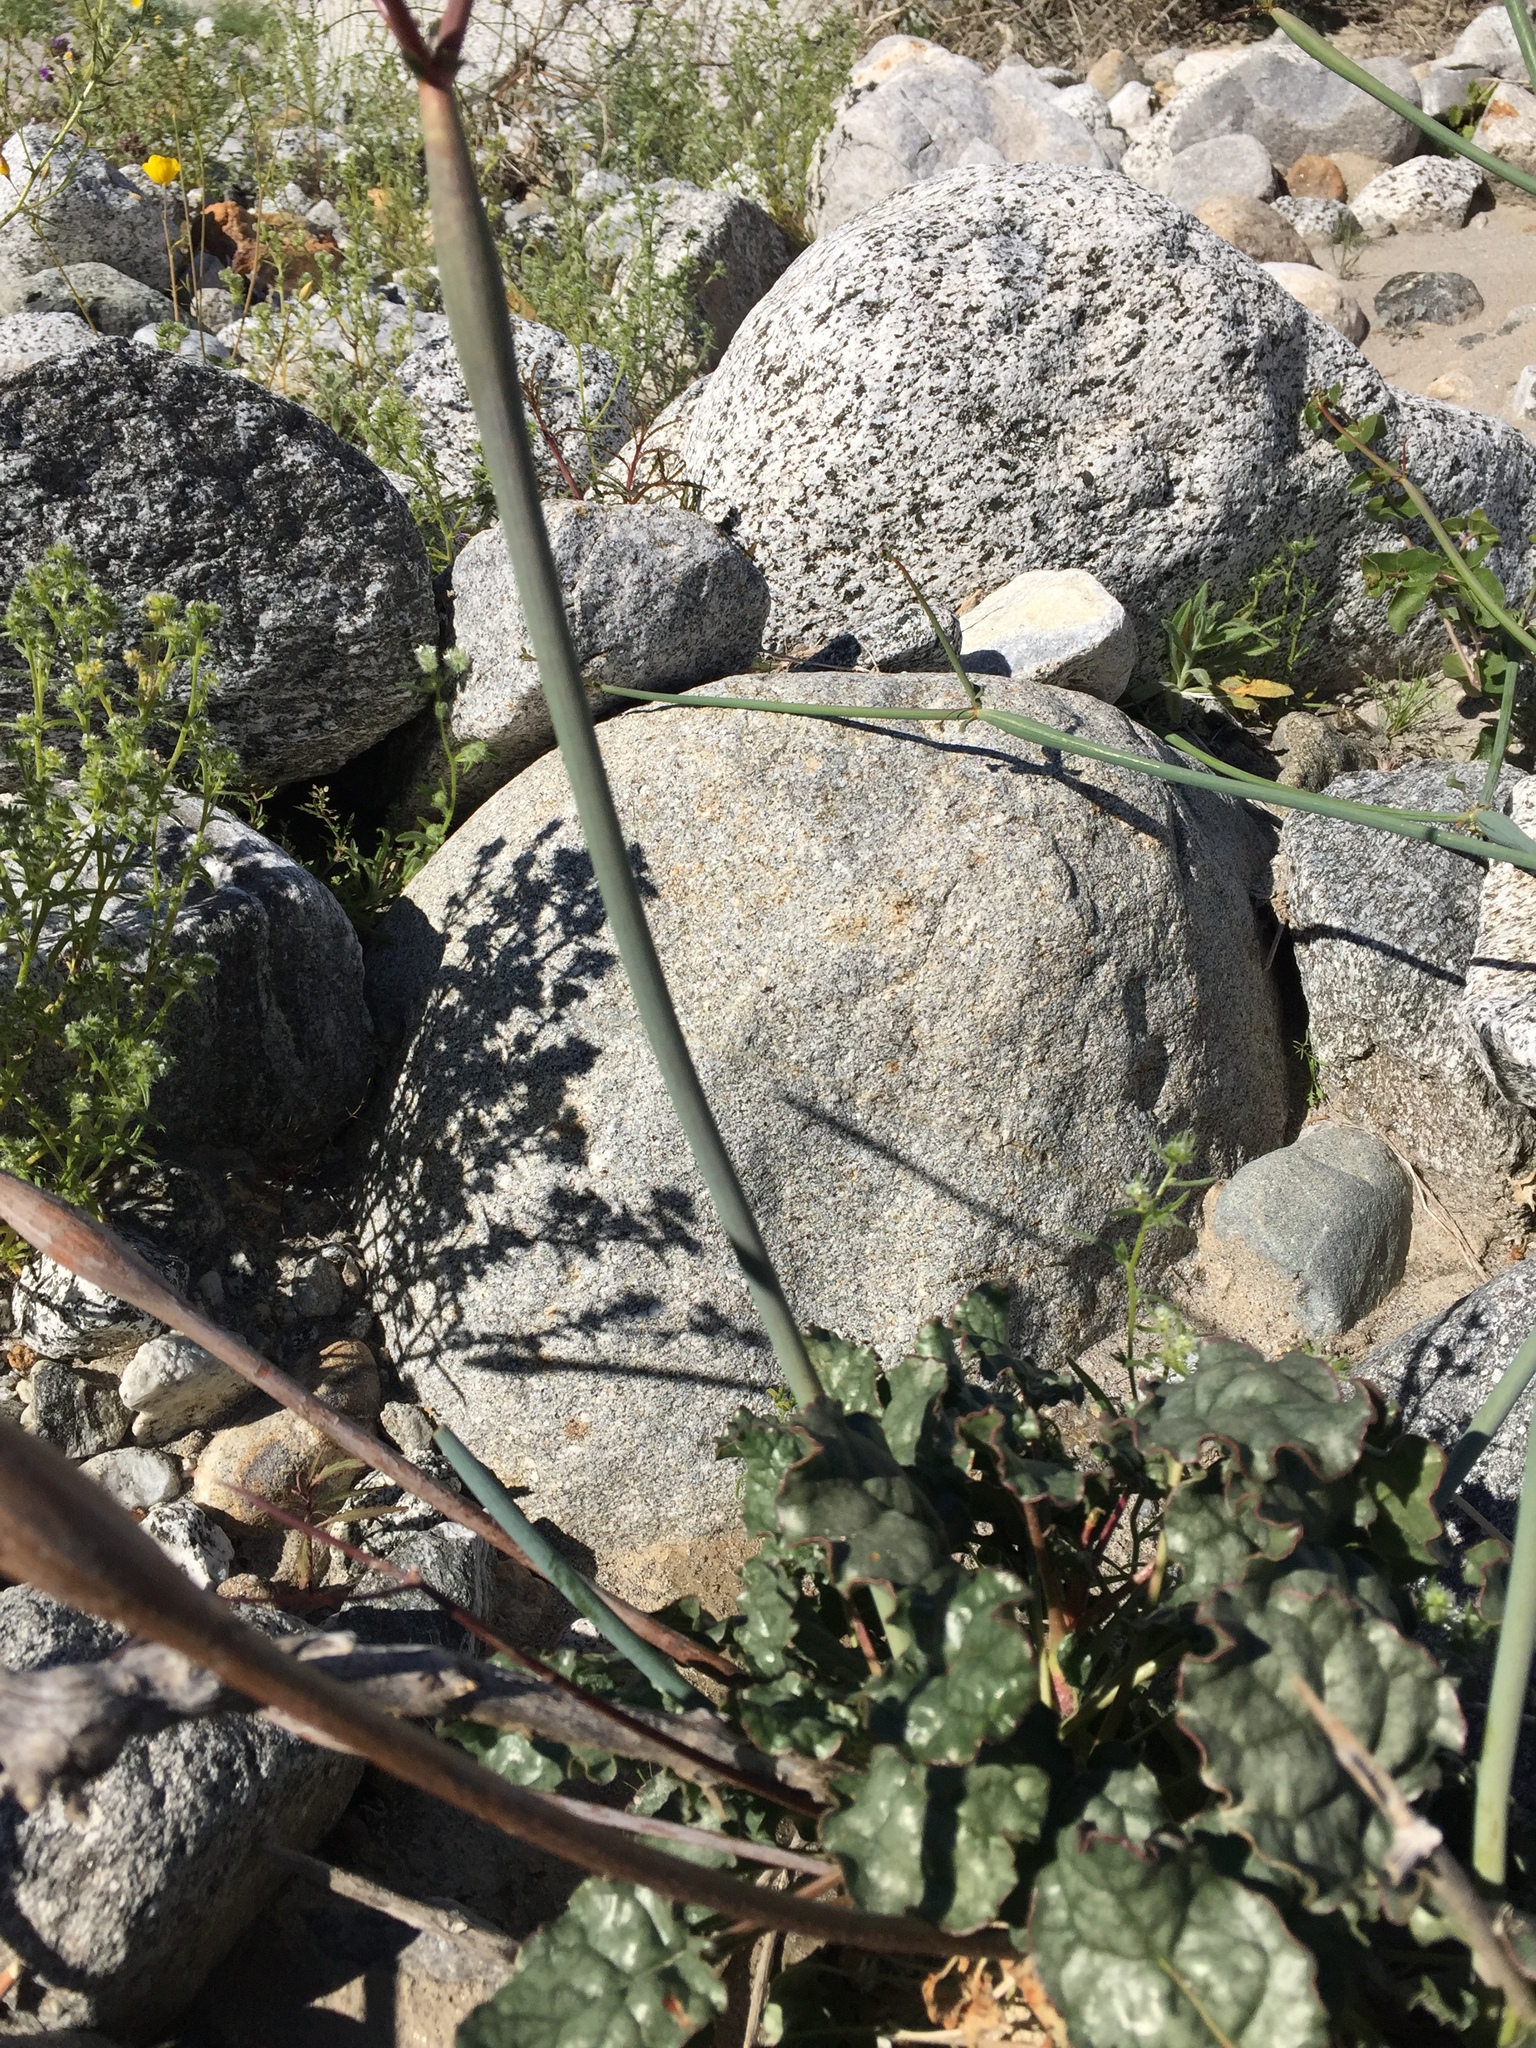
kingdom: Plantae
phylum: Tracheophyta
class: Magnoliopsida
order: Caryophyllales
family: Polygonaceae
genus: Eriogonum
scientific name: Eriogonum inflatum
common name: Desert trumpet
